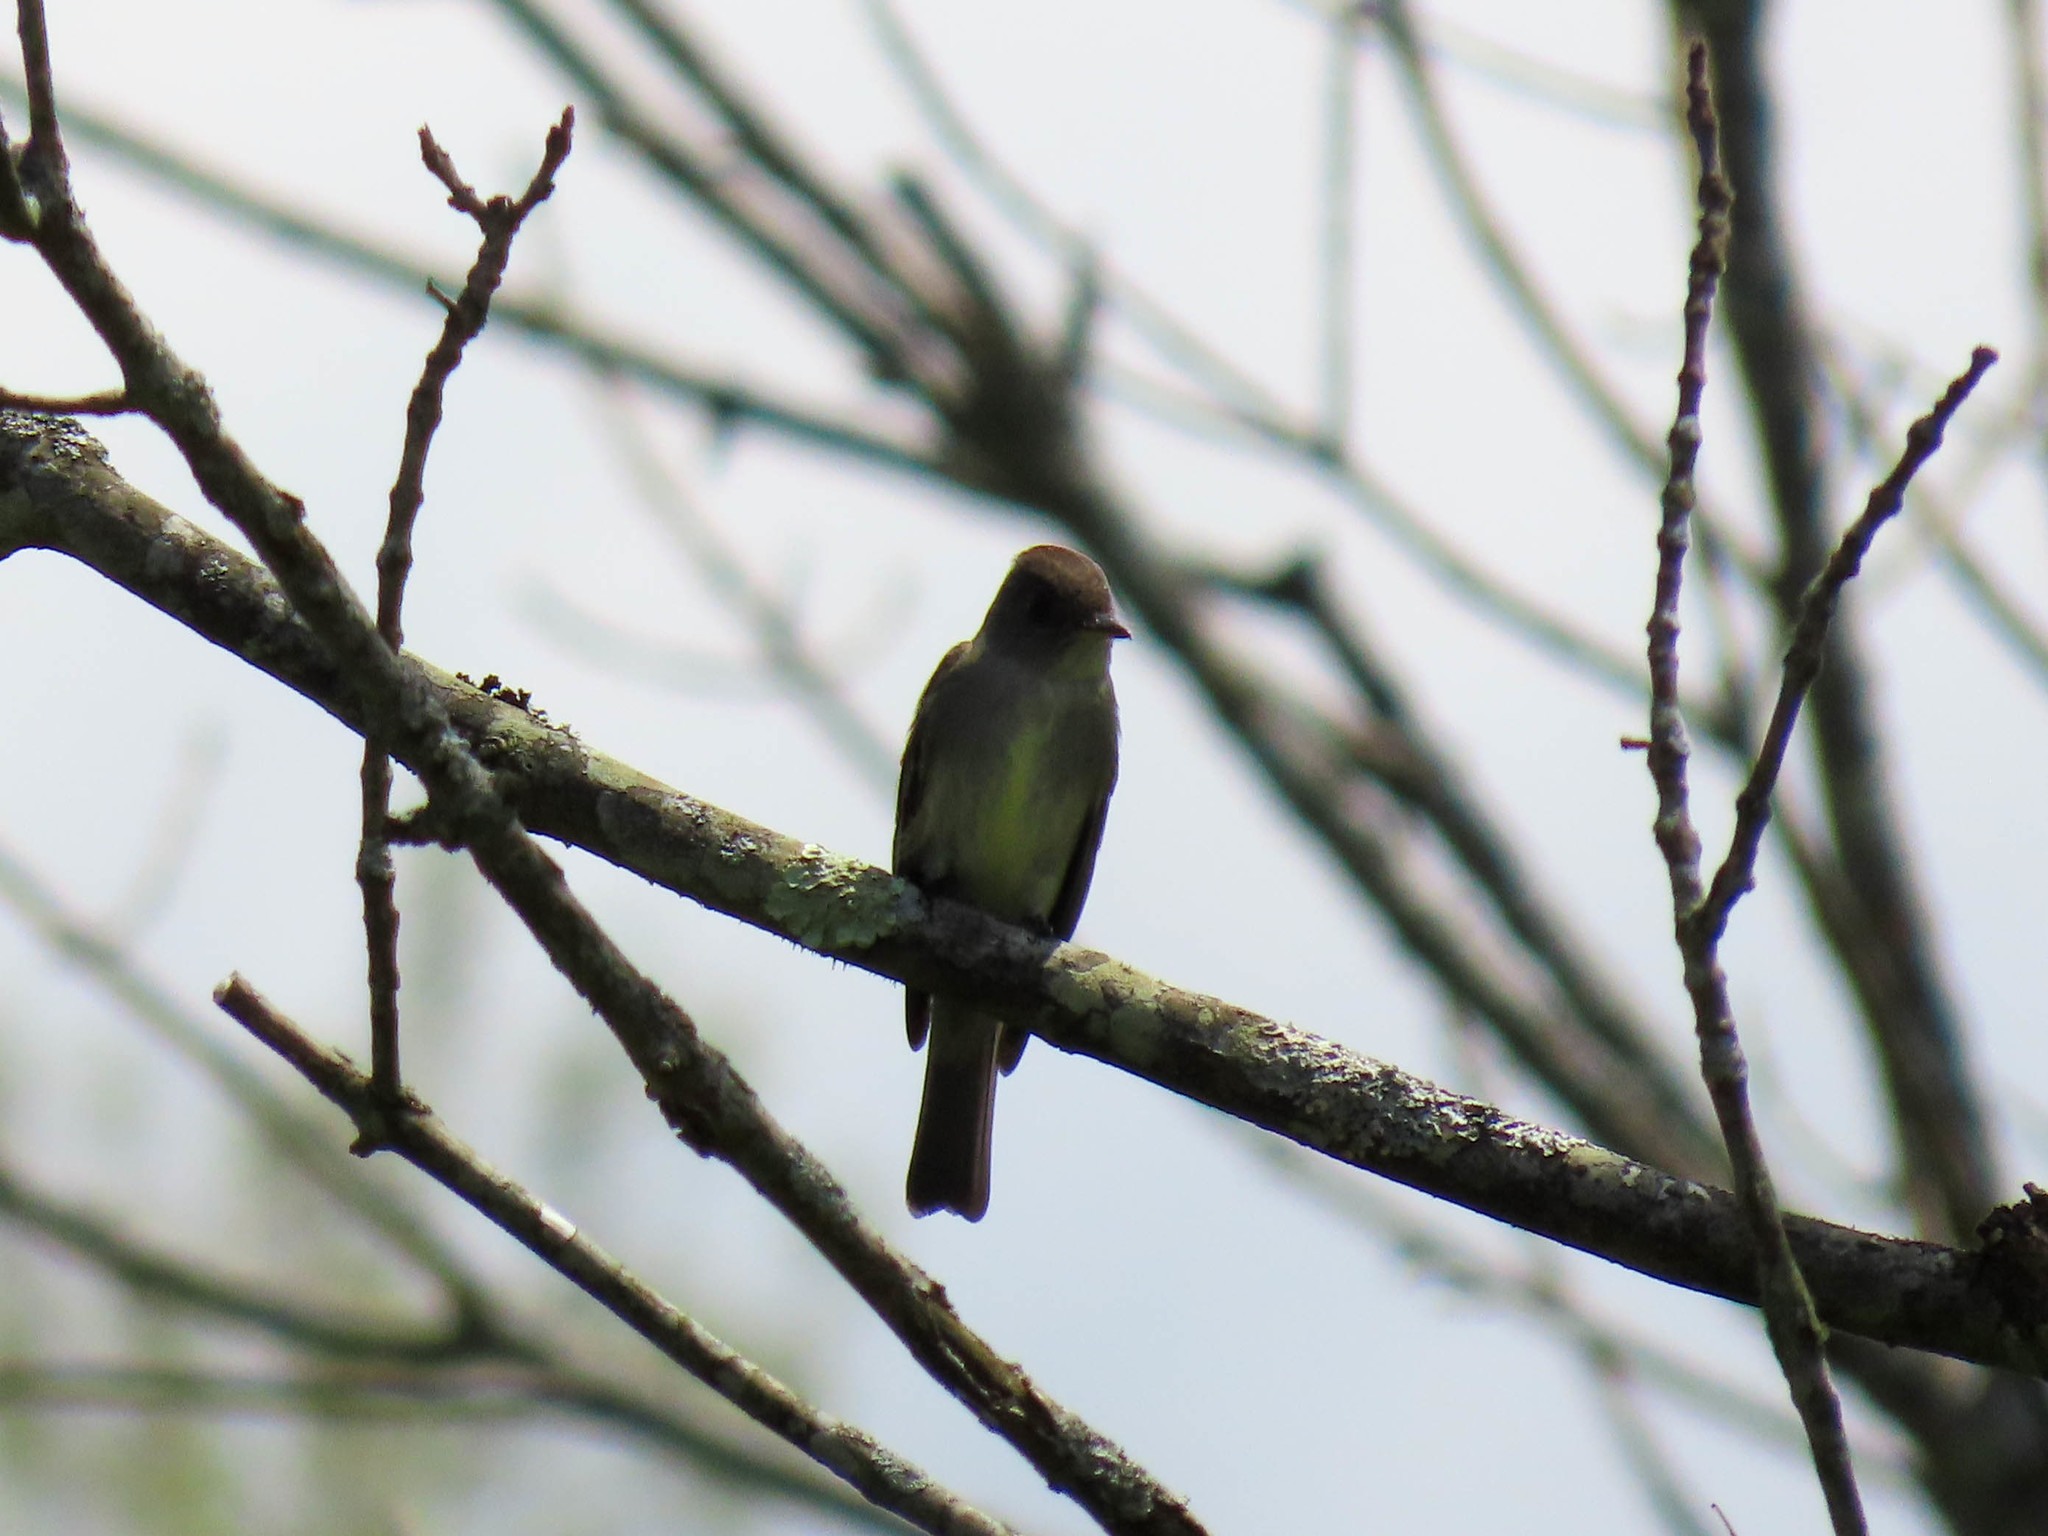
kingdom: Animalia
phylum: Chordata
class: Aves
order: Passeriformes
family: Tyrannidae
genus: Contopus
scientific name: Contopus virens
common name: Eastern wood-pewee
